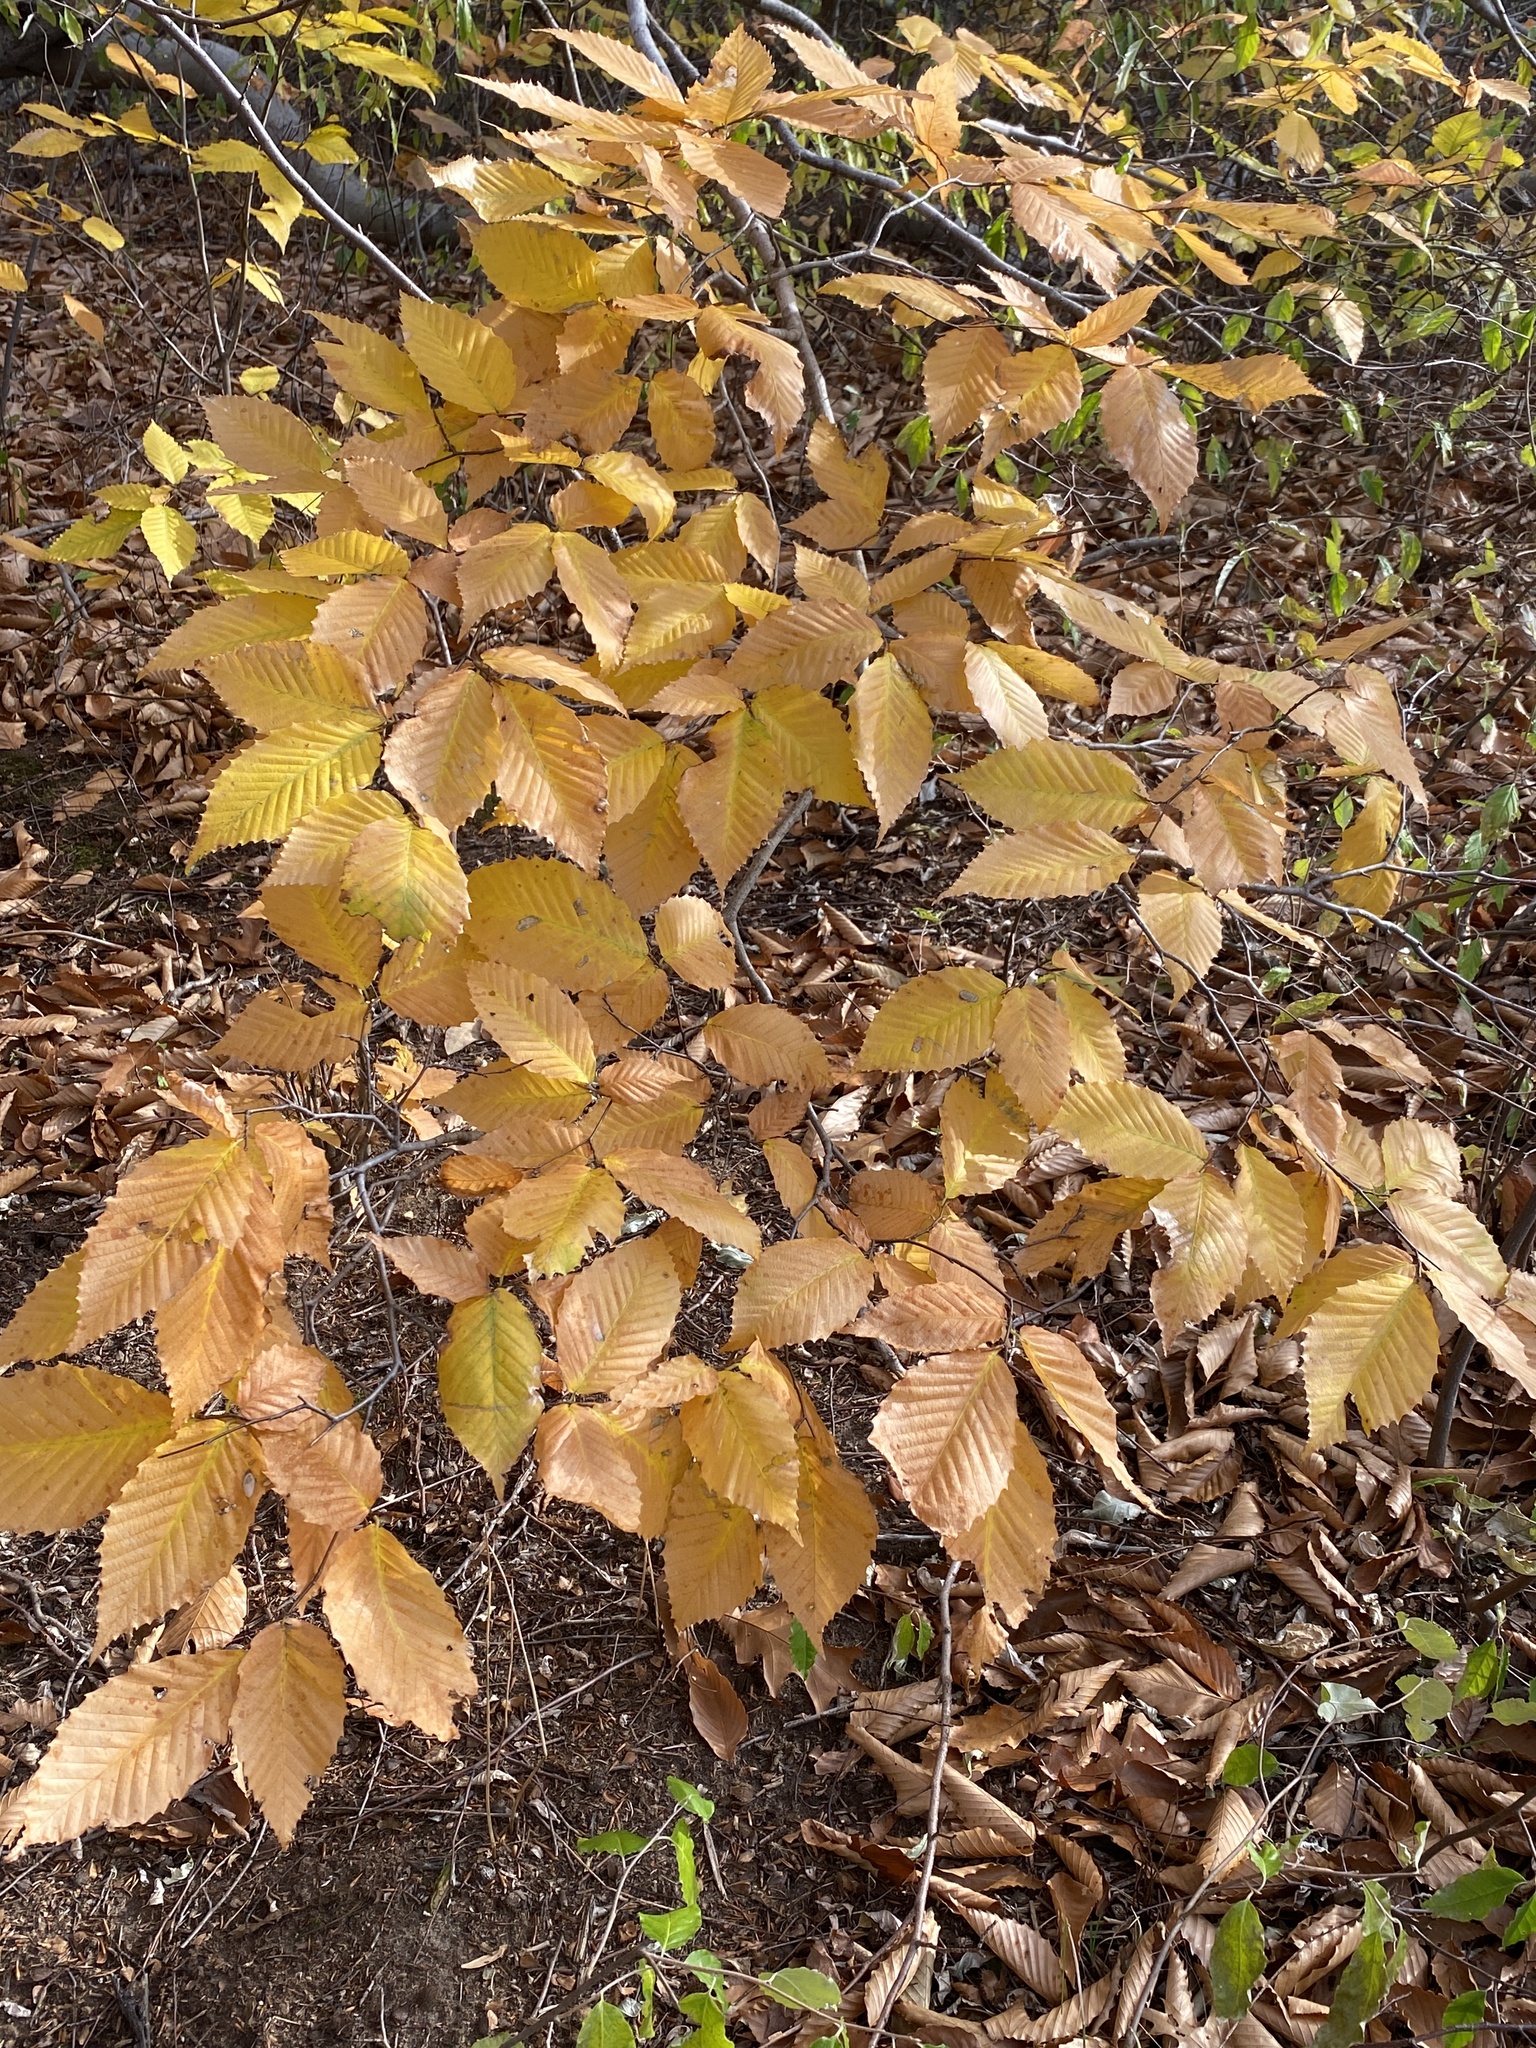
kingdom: Plantae
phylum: Tracheophyta
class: Magnoliopsida
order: Fagales
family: Fagaceae
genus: Fagus
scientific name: Fagus grandifolia
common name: American beech
